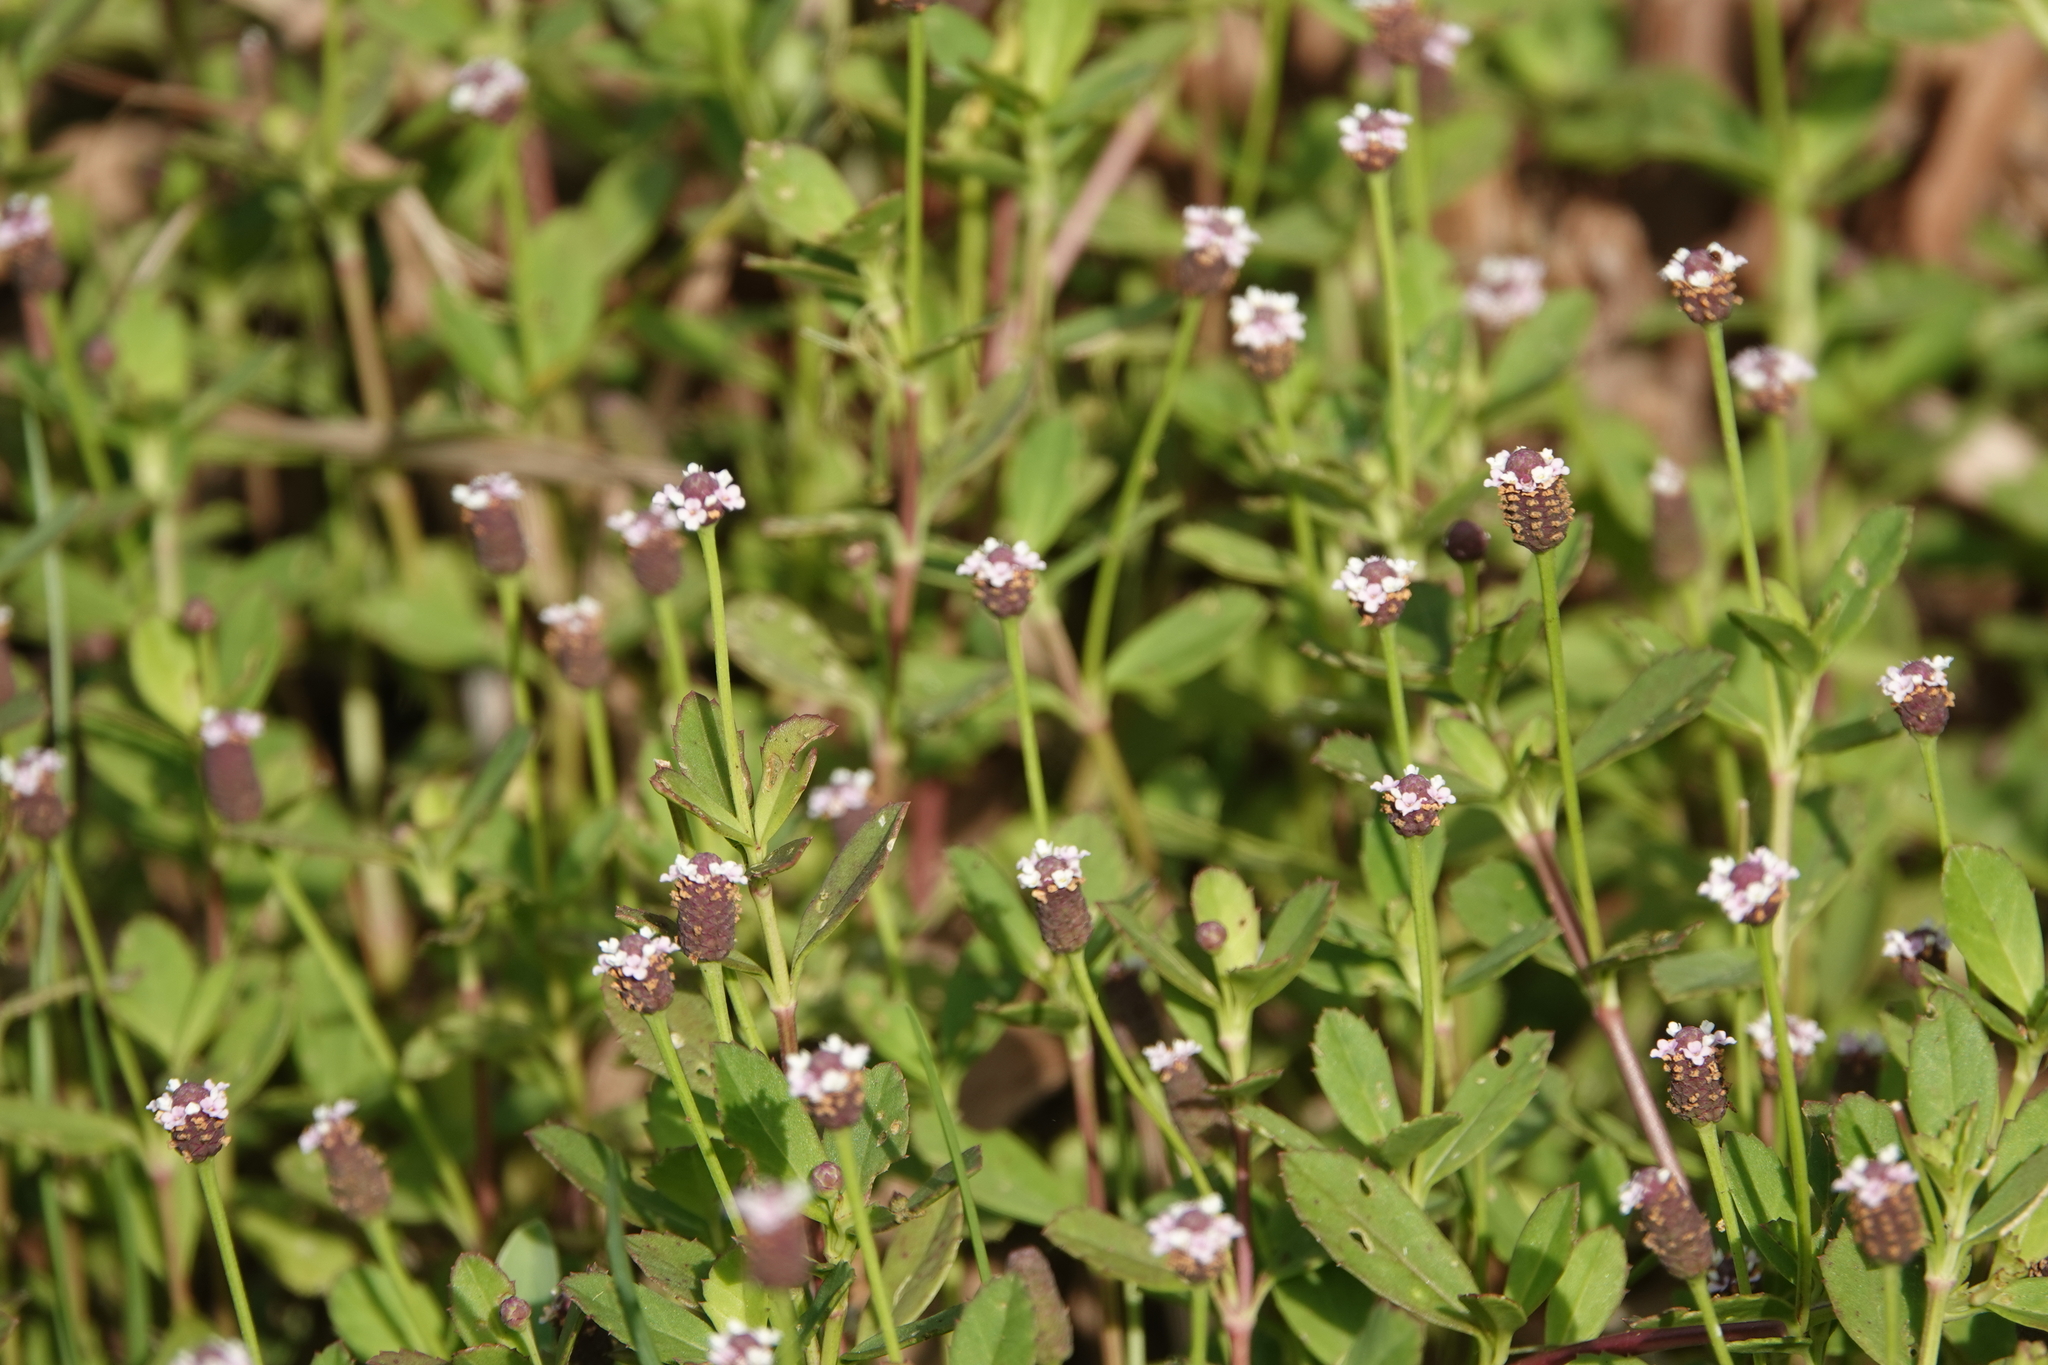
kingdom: Plantae
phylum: Tracheophyta
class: Magnoliopsida
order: Lamiales
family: Verbenaceae
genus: Phyla
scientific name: Phyla nodiflora
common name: Frogfruit
